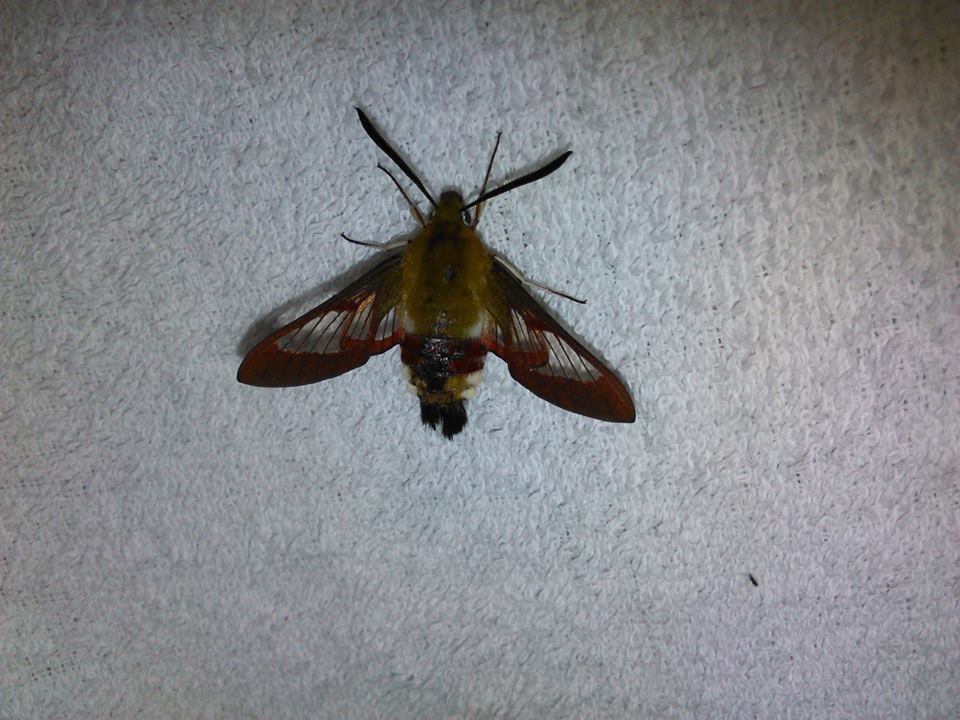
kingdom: Animalia
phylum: Arthropoda
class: Insecta
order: Lepidoptera
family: Sphingidae
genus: Hemaris
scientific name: Hemaris fuciformis
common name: Broad-bordered bee hawk-moth
